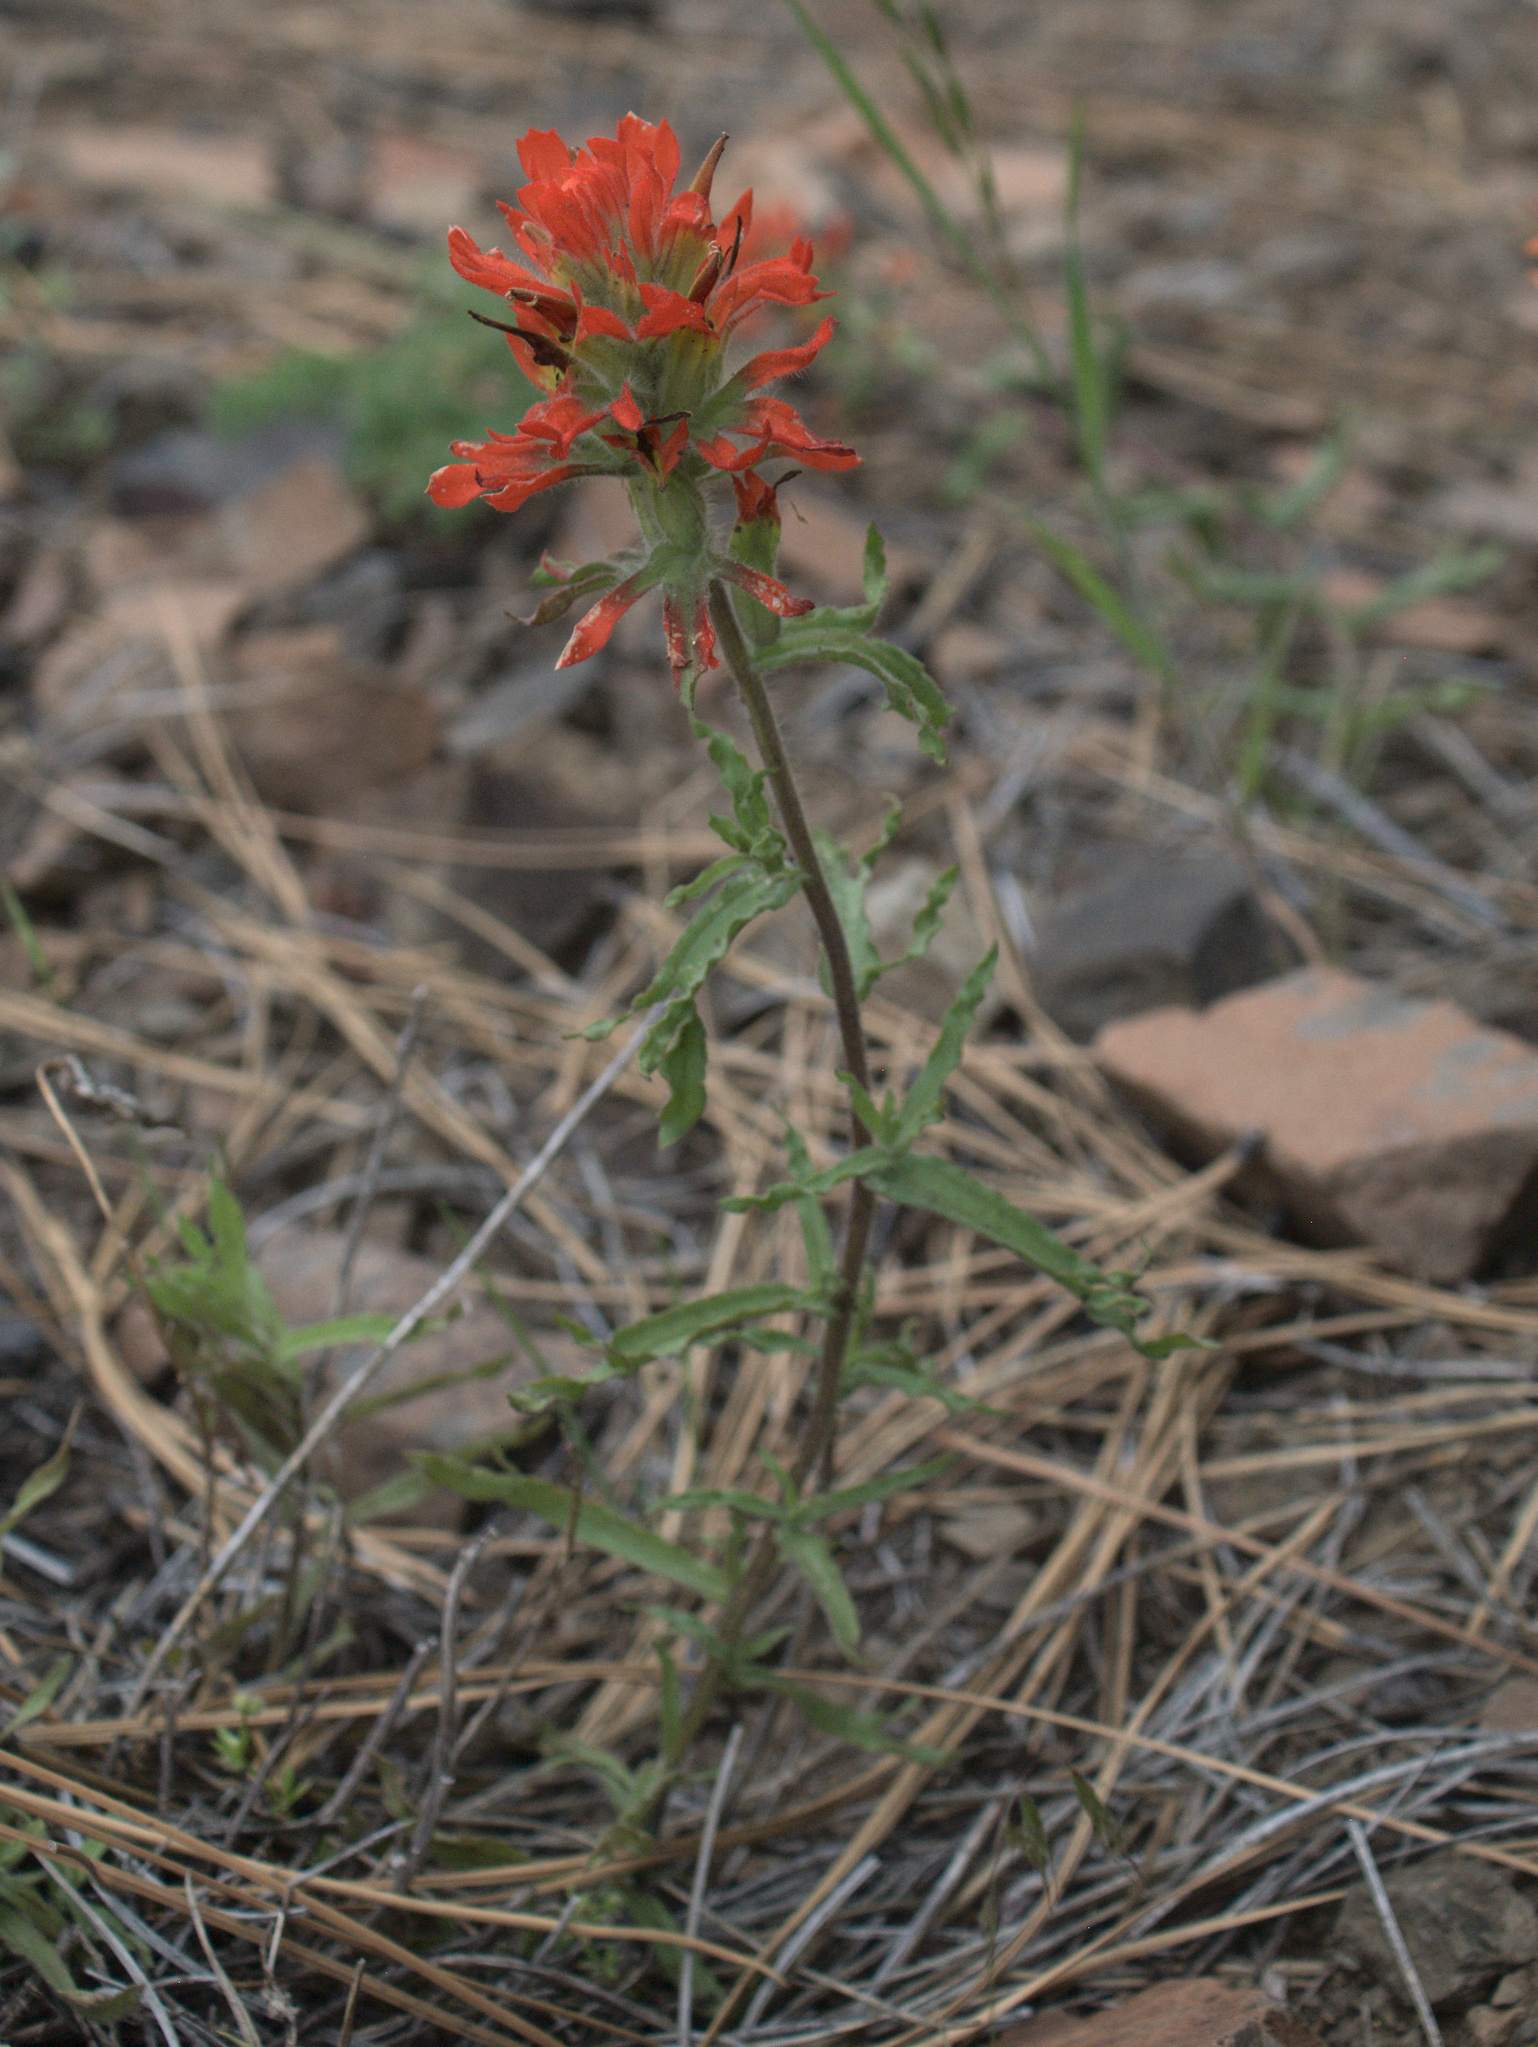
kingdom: Plantae
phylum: Tracheophyta
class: Magnoliopsida
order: Lamiales
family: Orobanchaceae
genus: Castilleja
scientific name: Castilleja applegatei
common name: Wavy-leaf paintbrush
